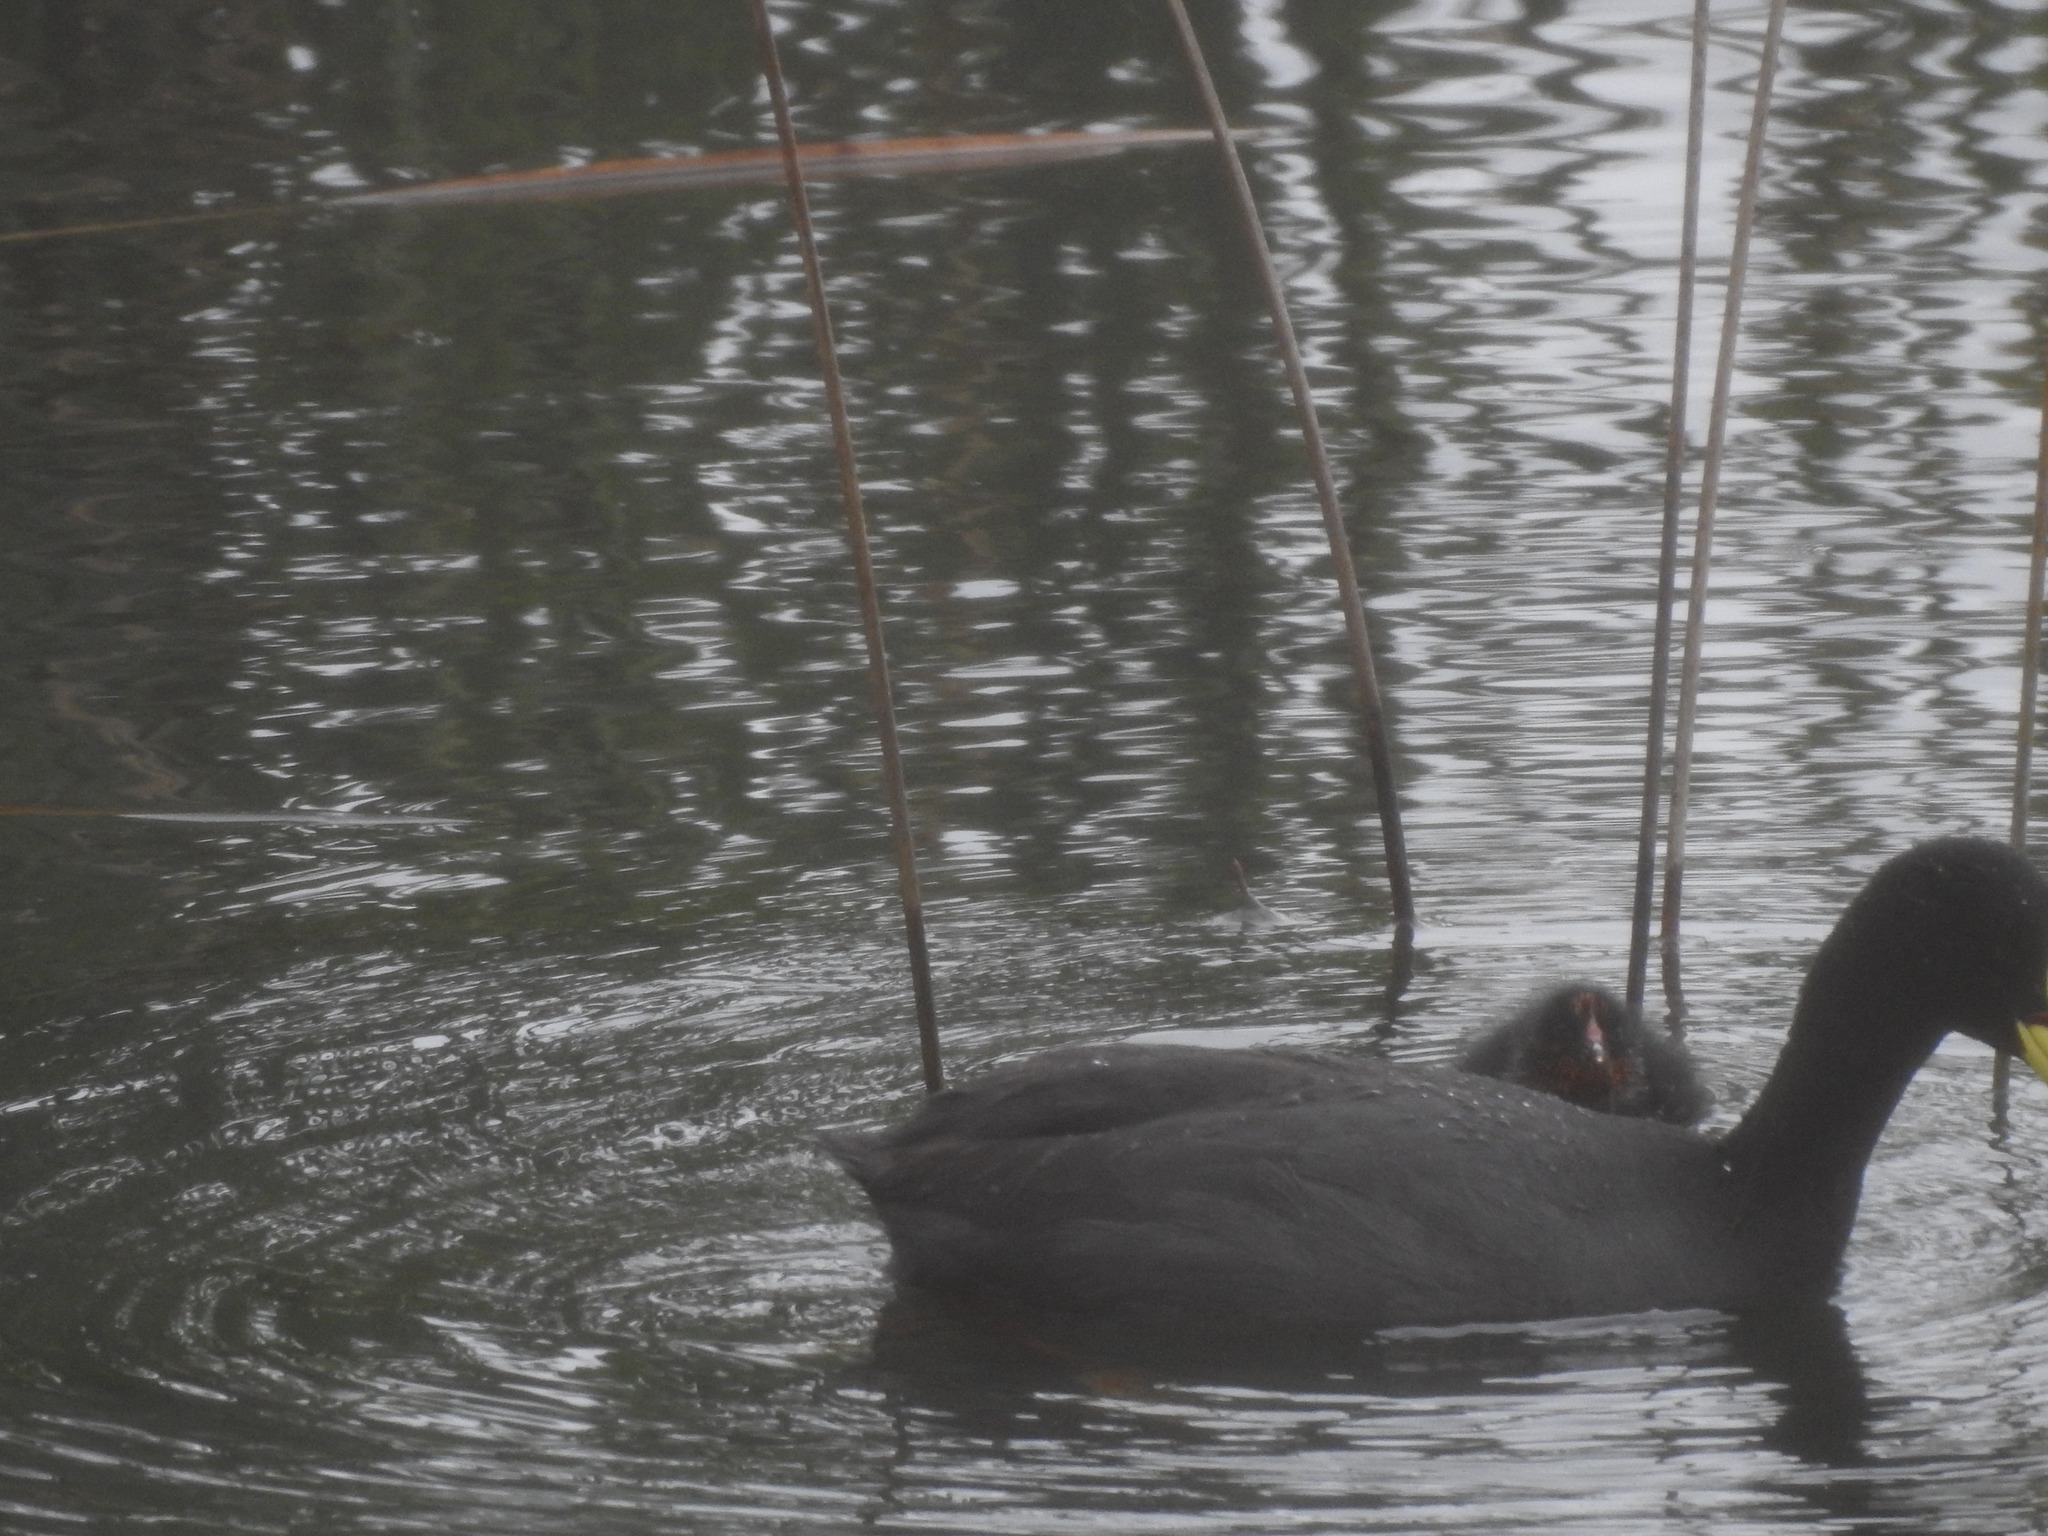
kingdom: Animalia
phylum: Chordata
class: Aves
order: Gruiformes
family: Rallidae
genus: Fulica
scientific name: Fulica armillata
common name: Red-gartered coot
